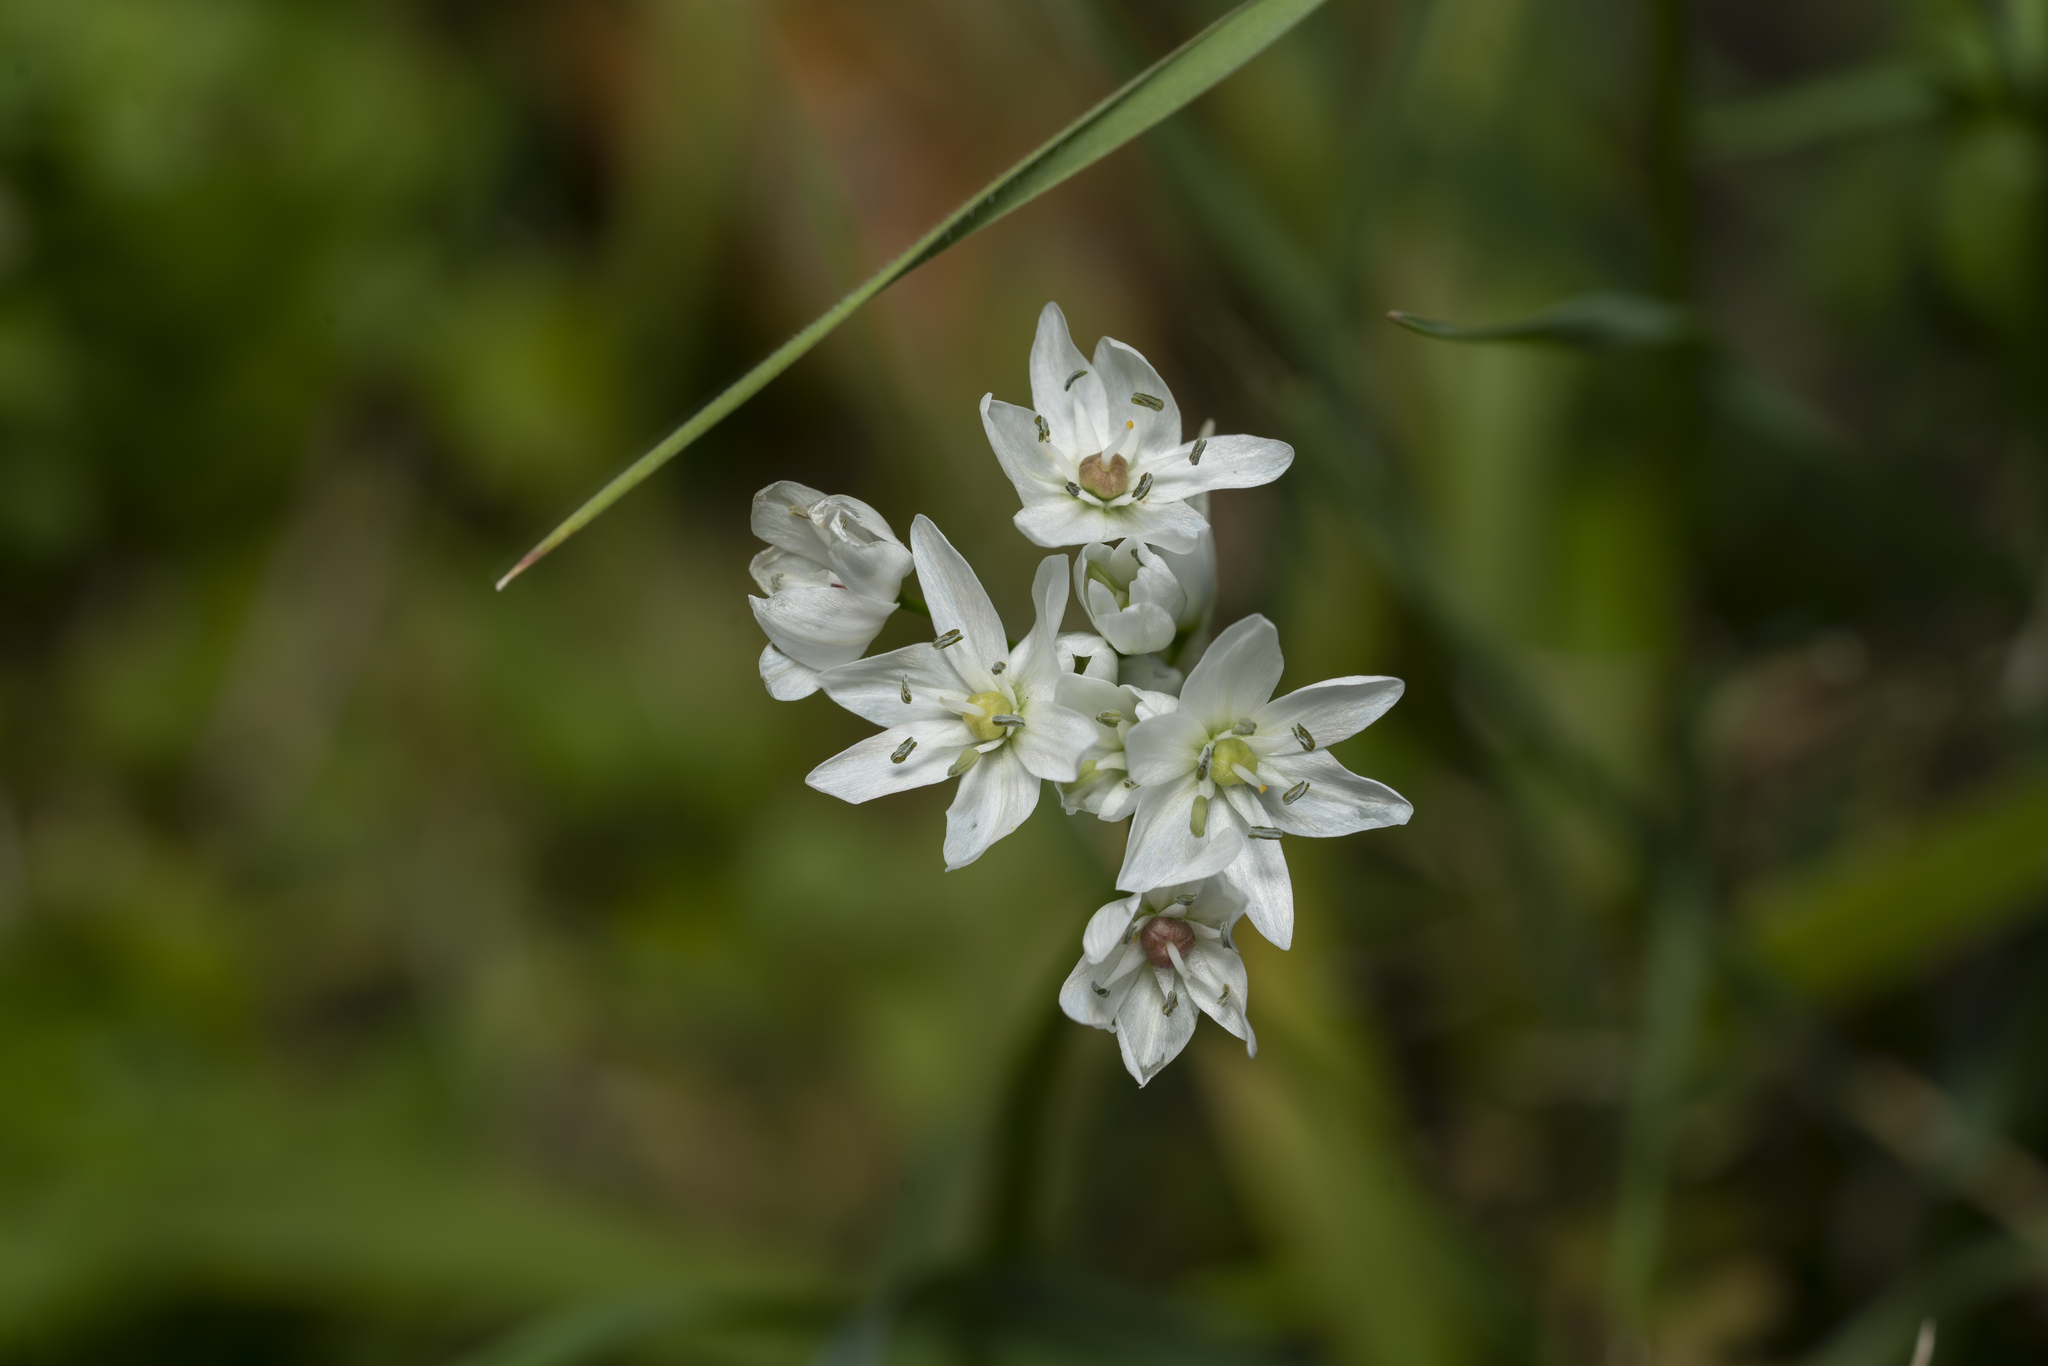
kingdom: Plantae
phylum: Tracheophyta
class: Liliopsida
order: Asparagales
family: Amaryllidaceae
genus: Allium
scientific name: Allium neapolitanum
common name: Neapolitan garlic
